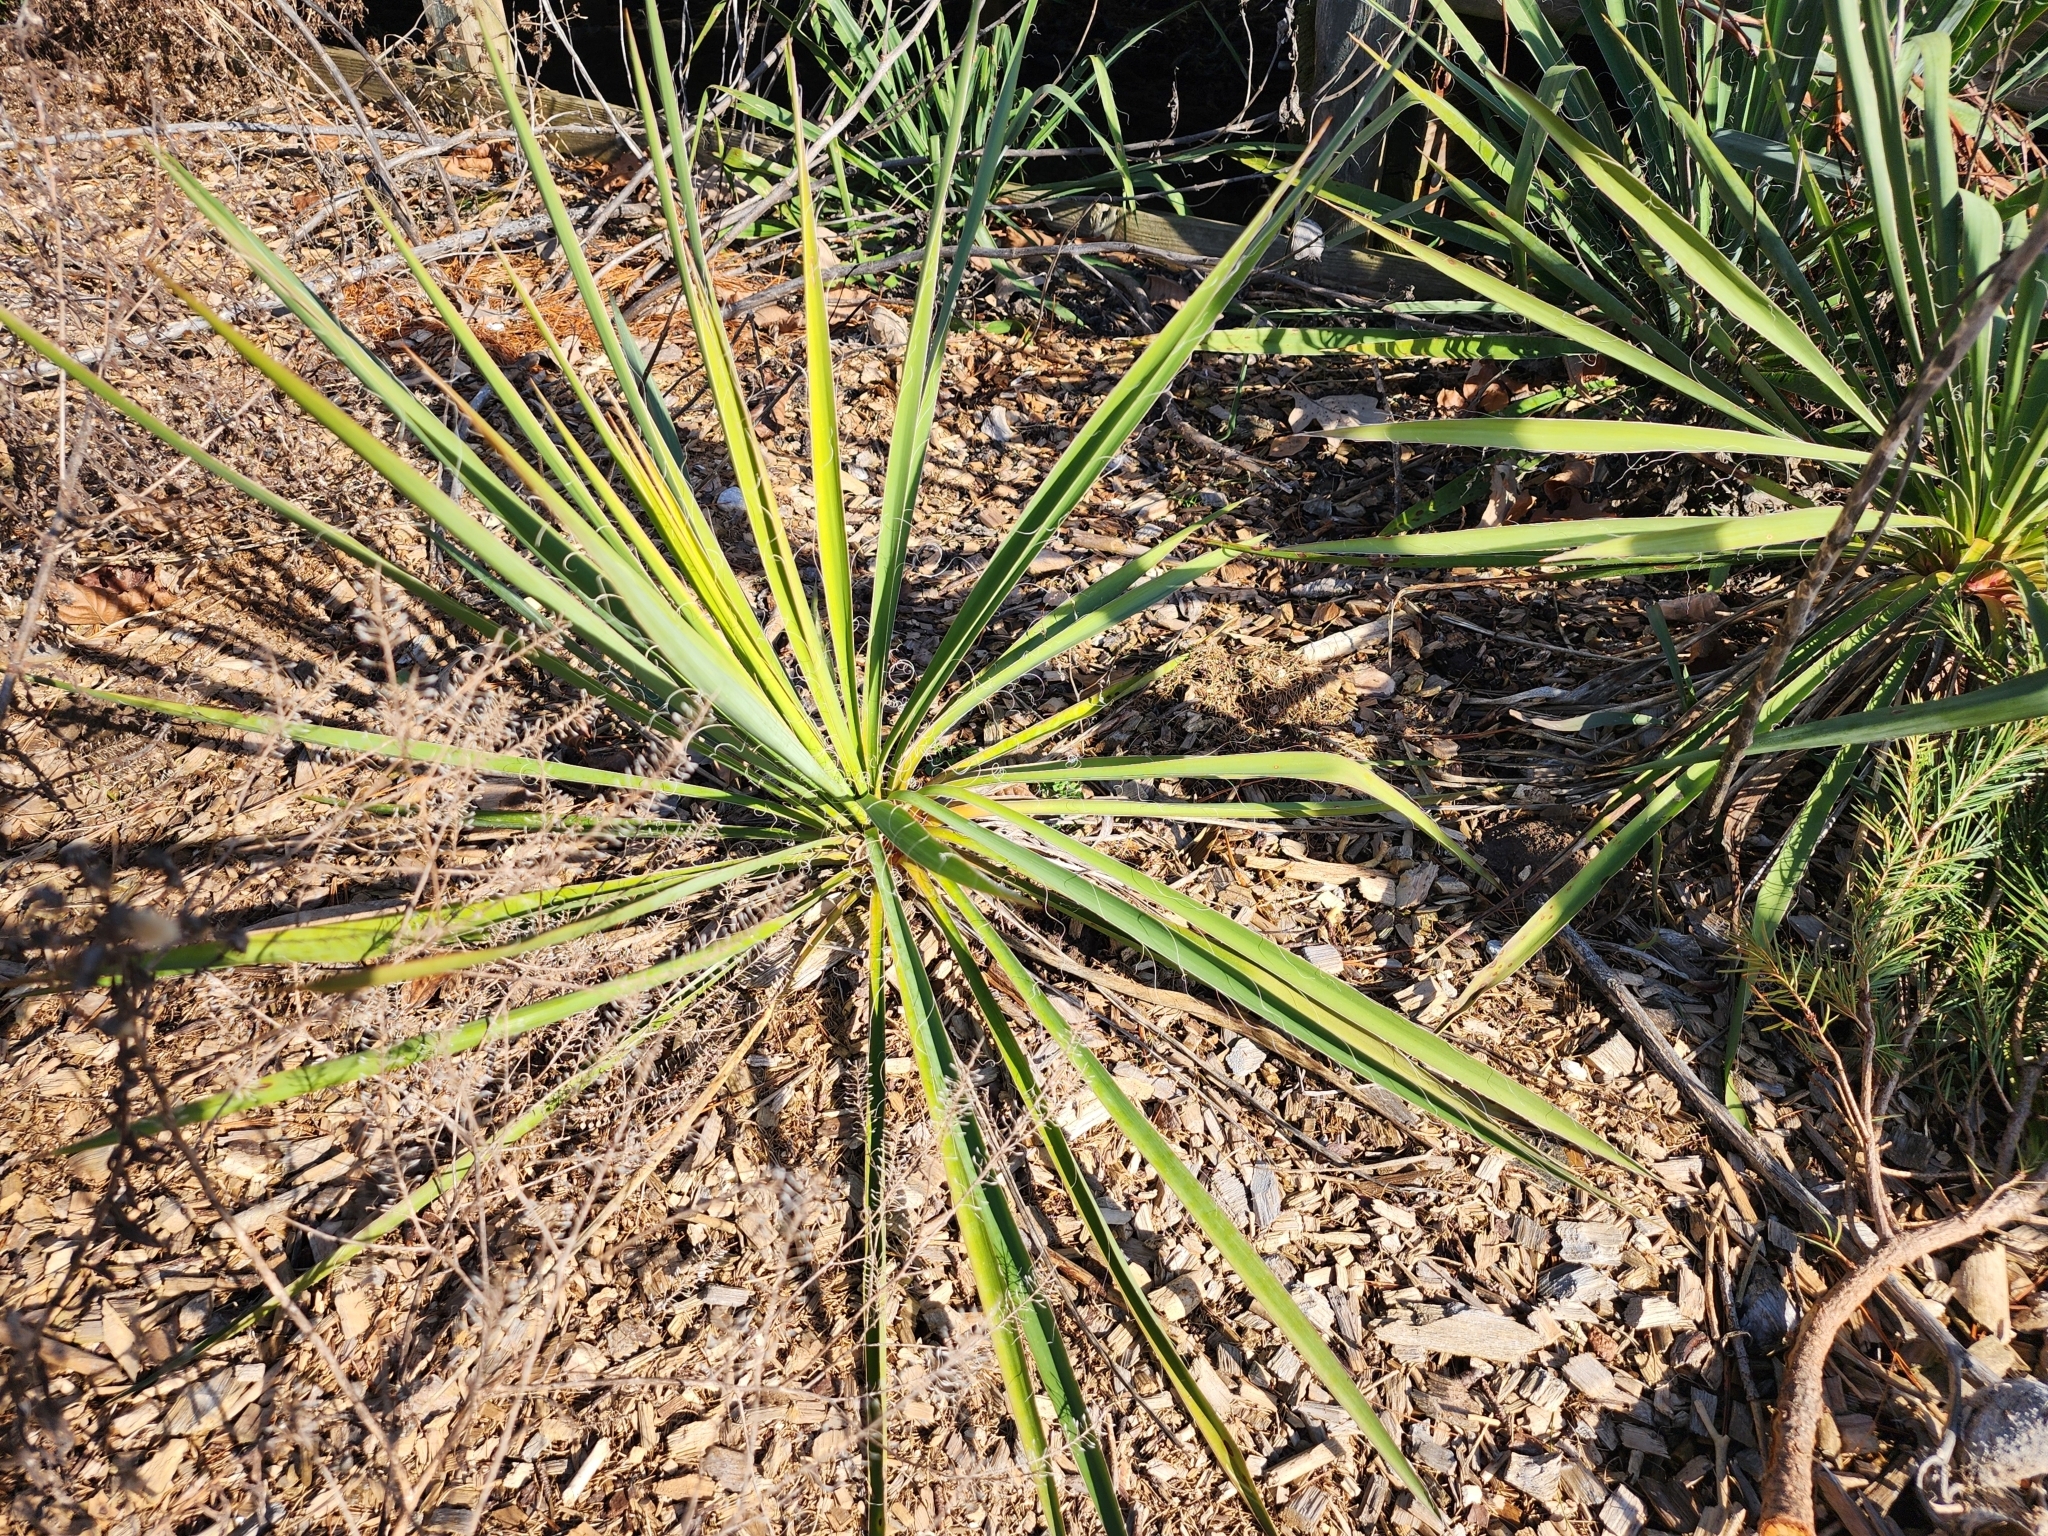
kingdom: Plantae
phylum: Tracheophyta
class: Liliopsida
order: Asparagales
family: Asparagaceae
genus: Yucca
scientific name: Yucca filamentosa
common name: Adam's-needle
